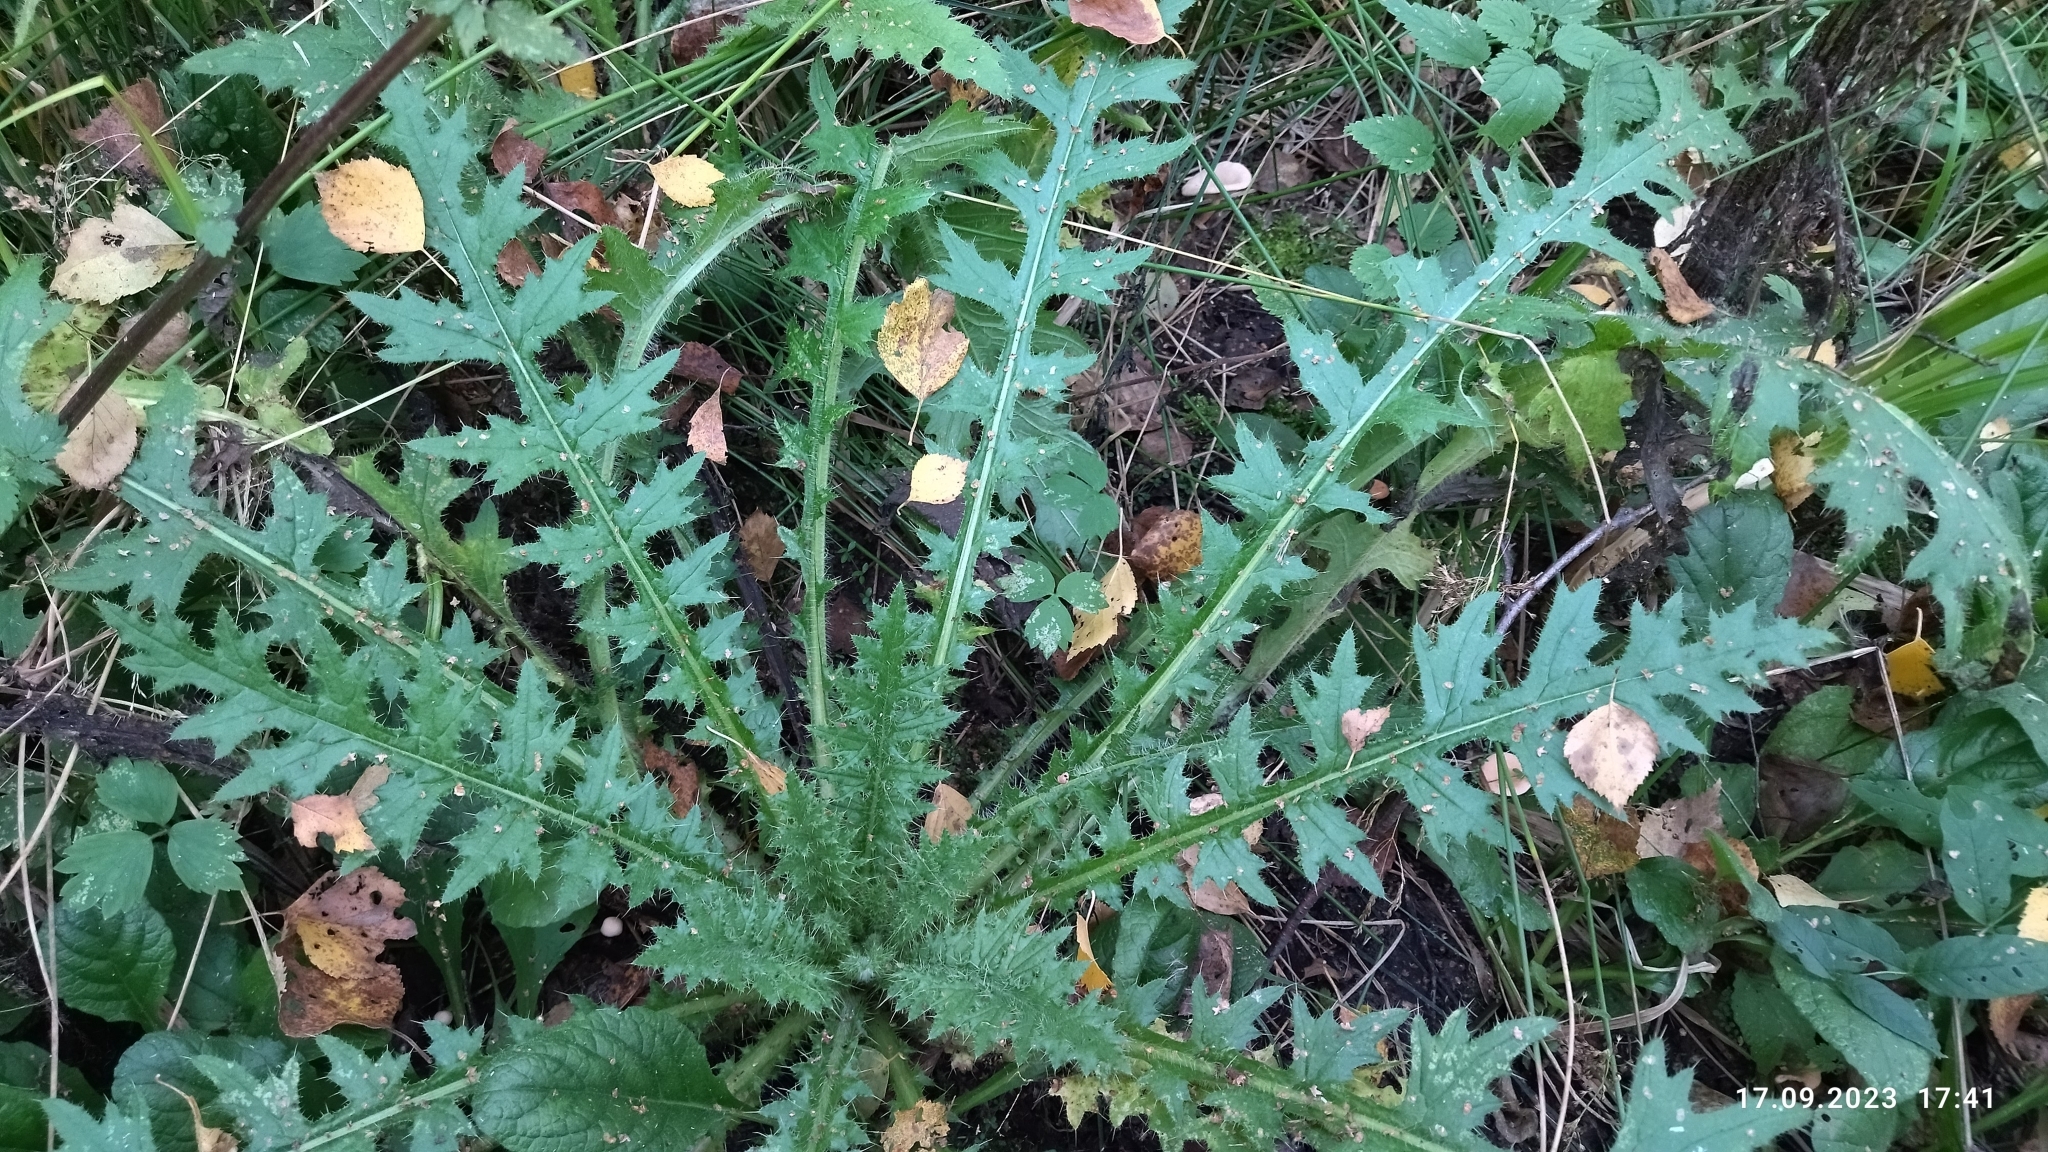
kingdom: Plantae
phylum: Tracheophyta
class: Magnoliopsida
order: Asterales
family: Asteraceae
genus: Cirsium
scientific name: Cirsium palustre
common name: Marsh thistle
